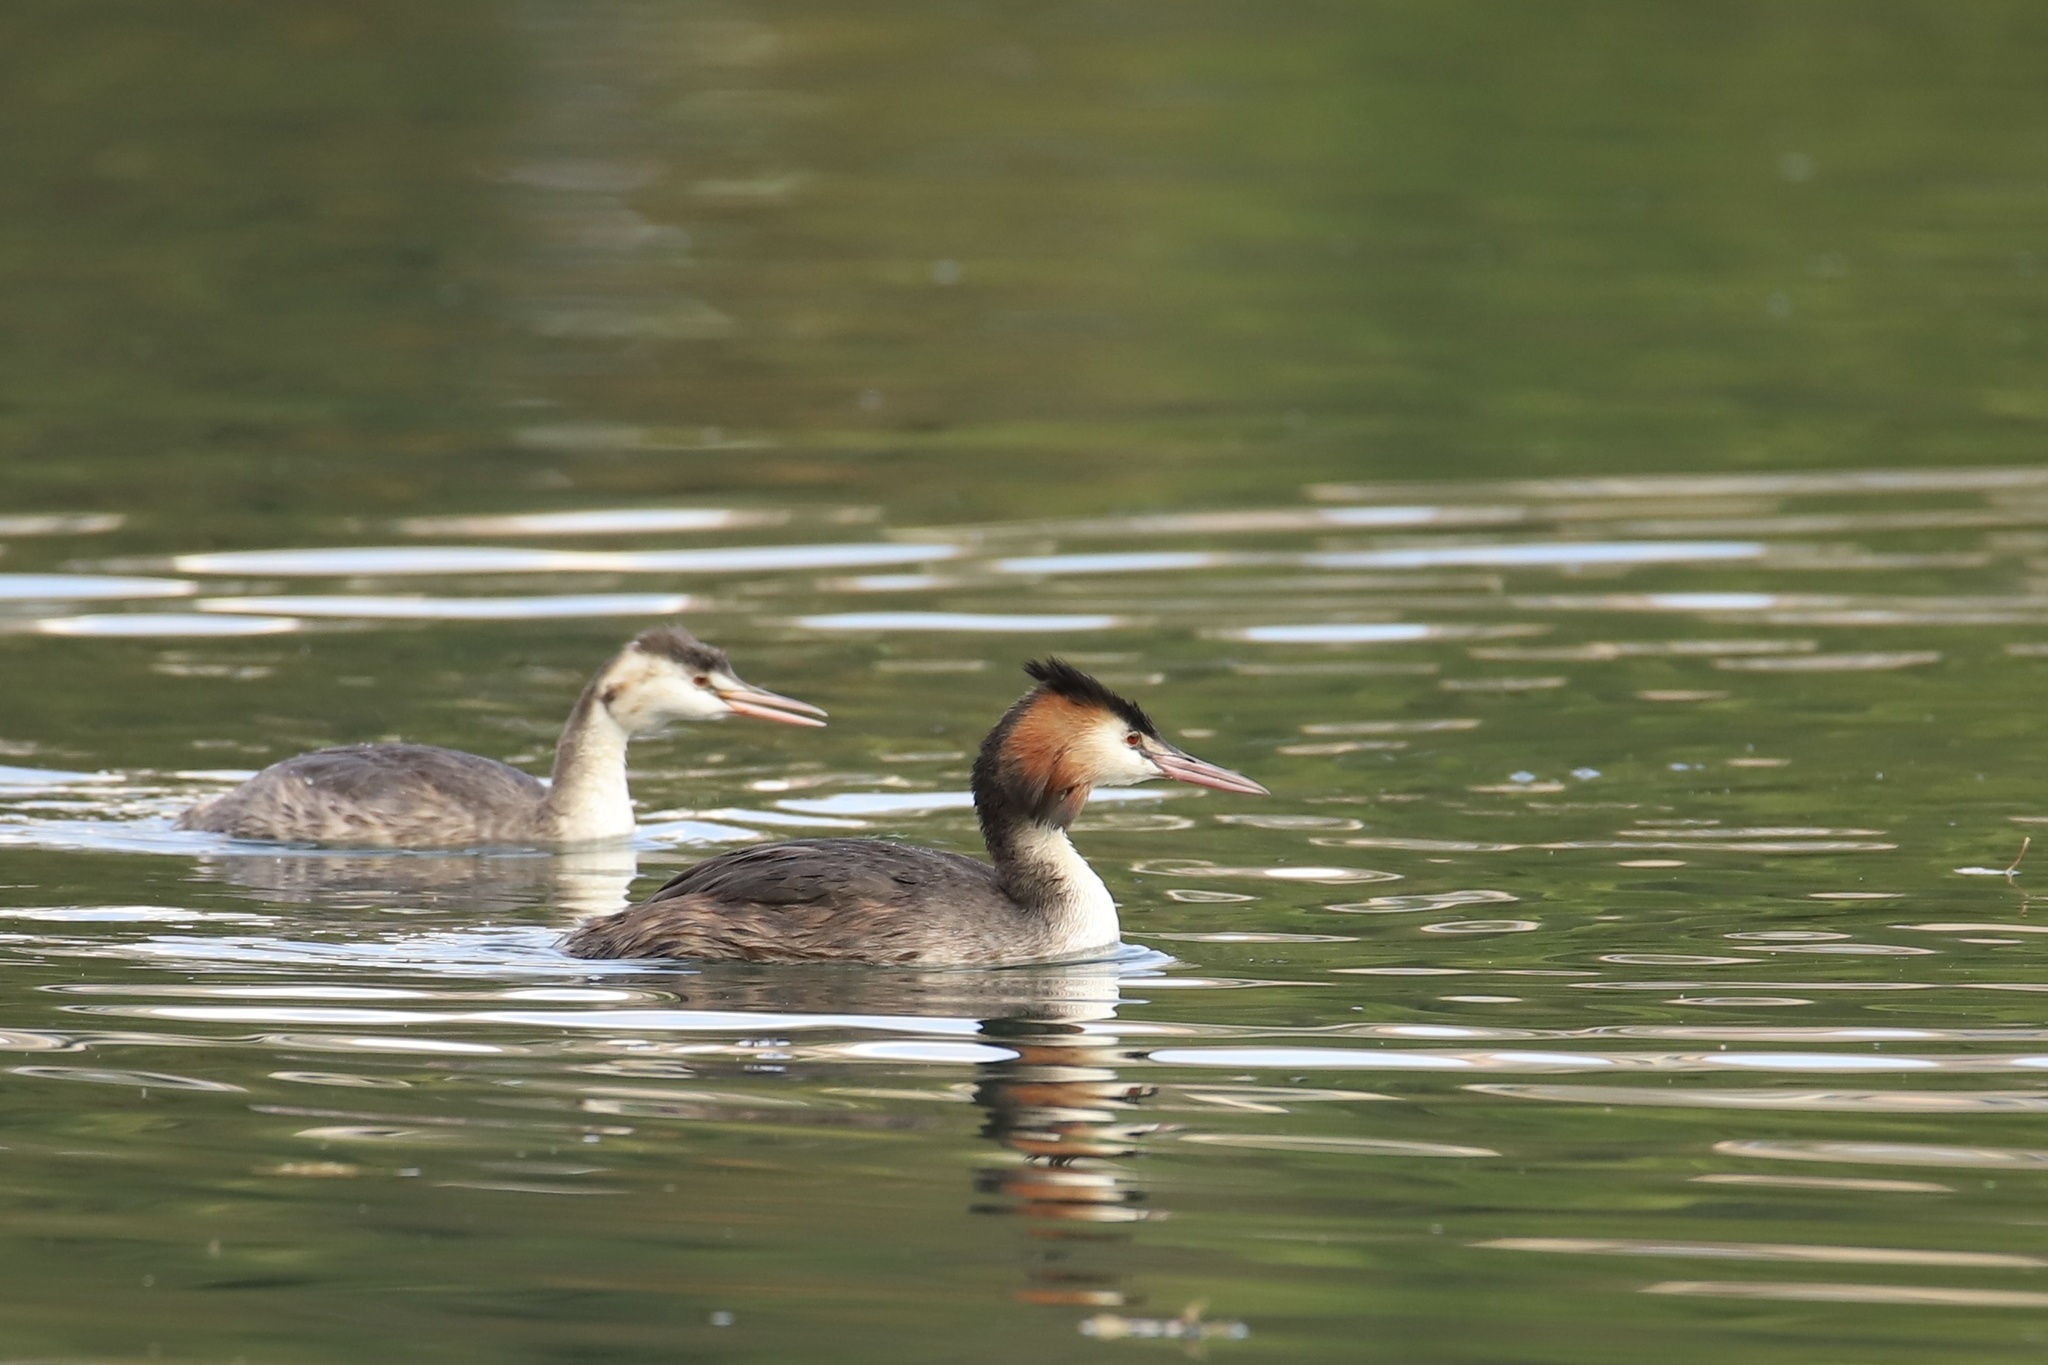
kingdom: Animalia
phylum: Chordata
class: Aves
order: Podicipediformes
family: Podicipedidae
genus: Podiceps
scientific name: Podiceps cristatus
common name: Great crested grebe
